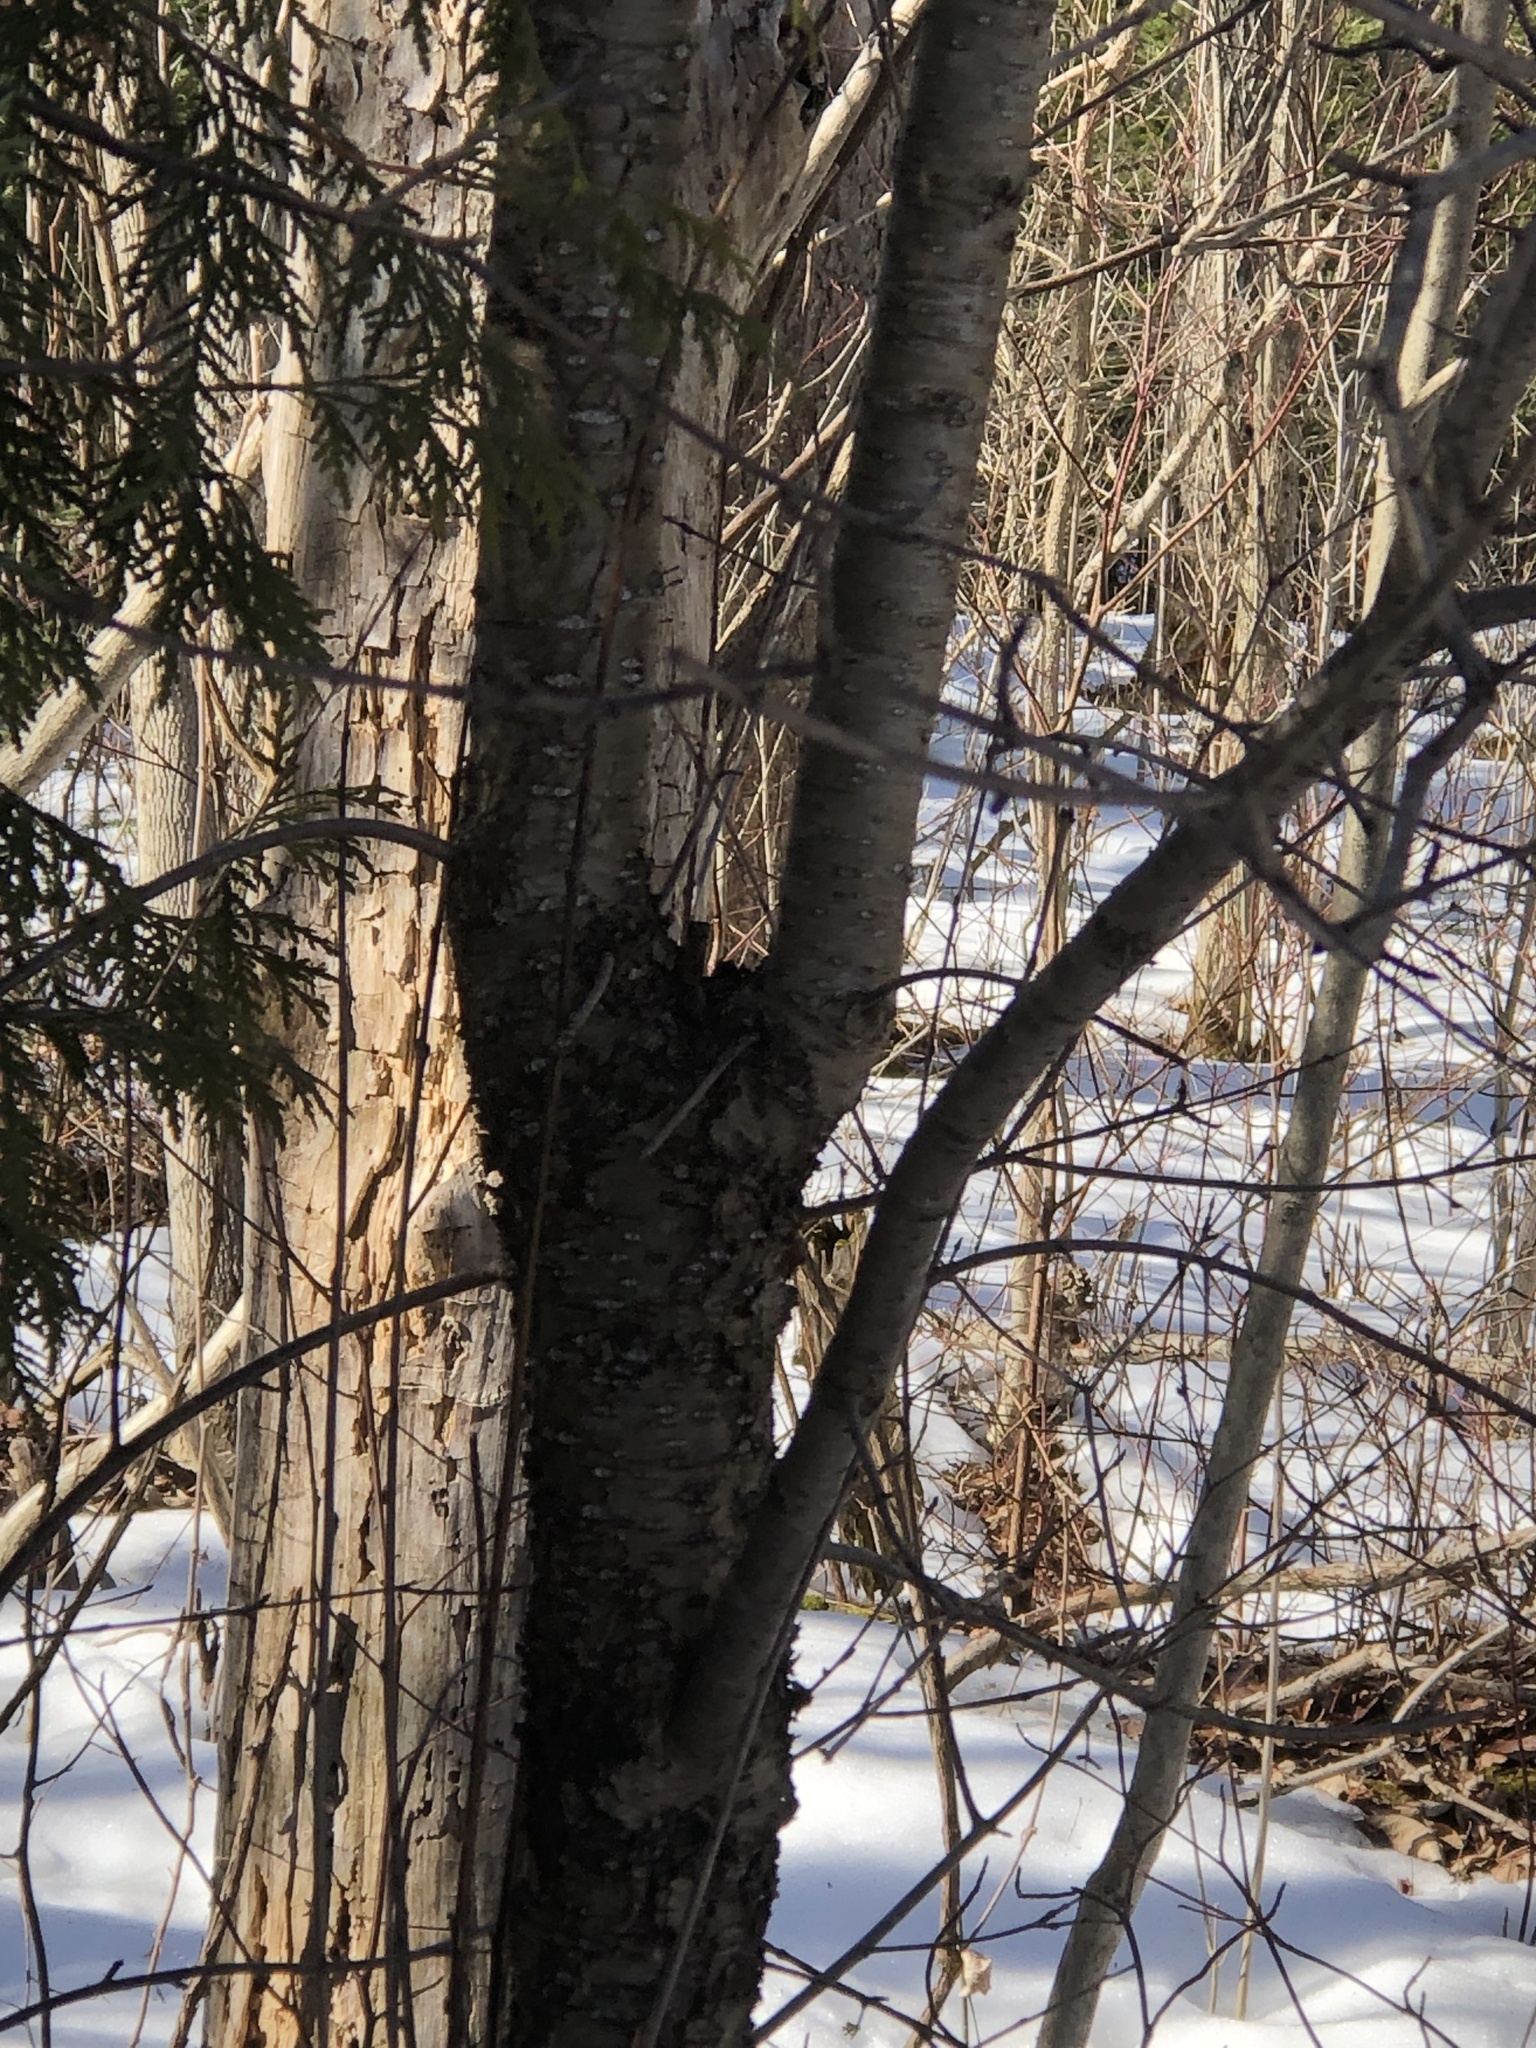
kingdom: Plantae
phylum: Tracheophyta
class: Magnoliopsida
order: Rosales
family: Rhamnaceae
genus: Rhamnus
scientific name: Rhamnus cathartica
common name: Common buckthorn
